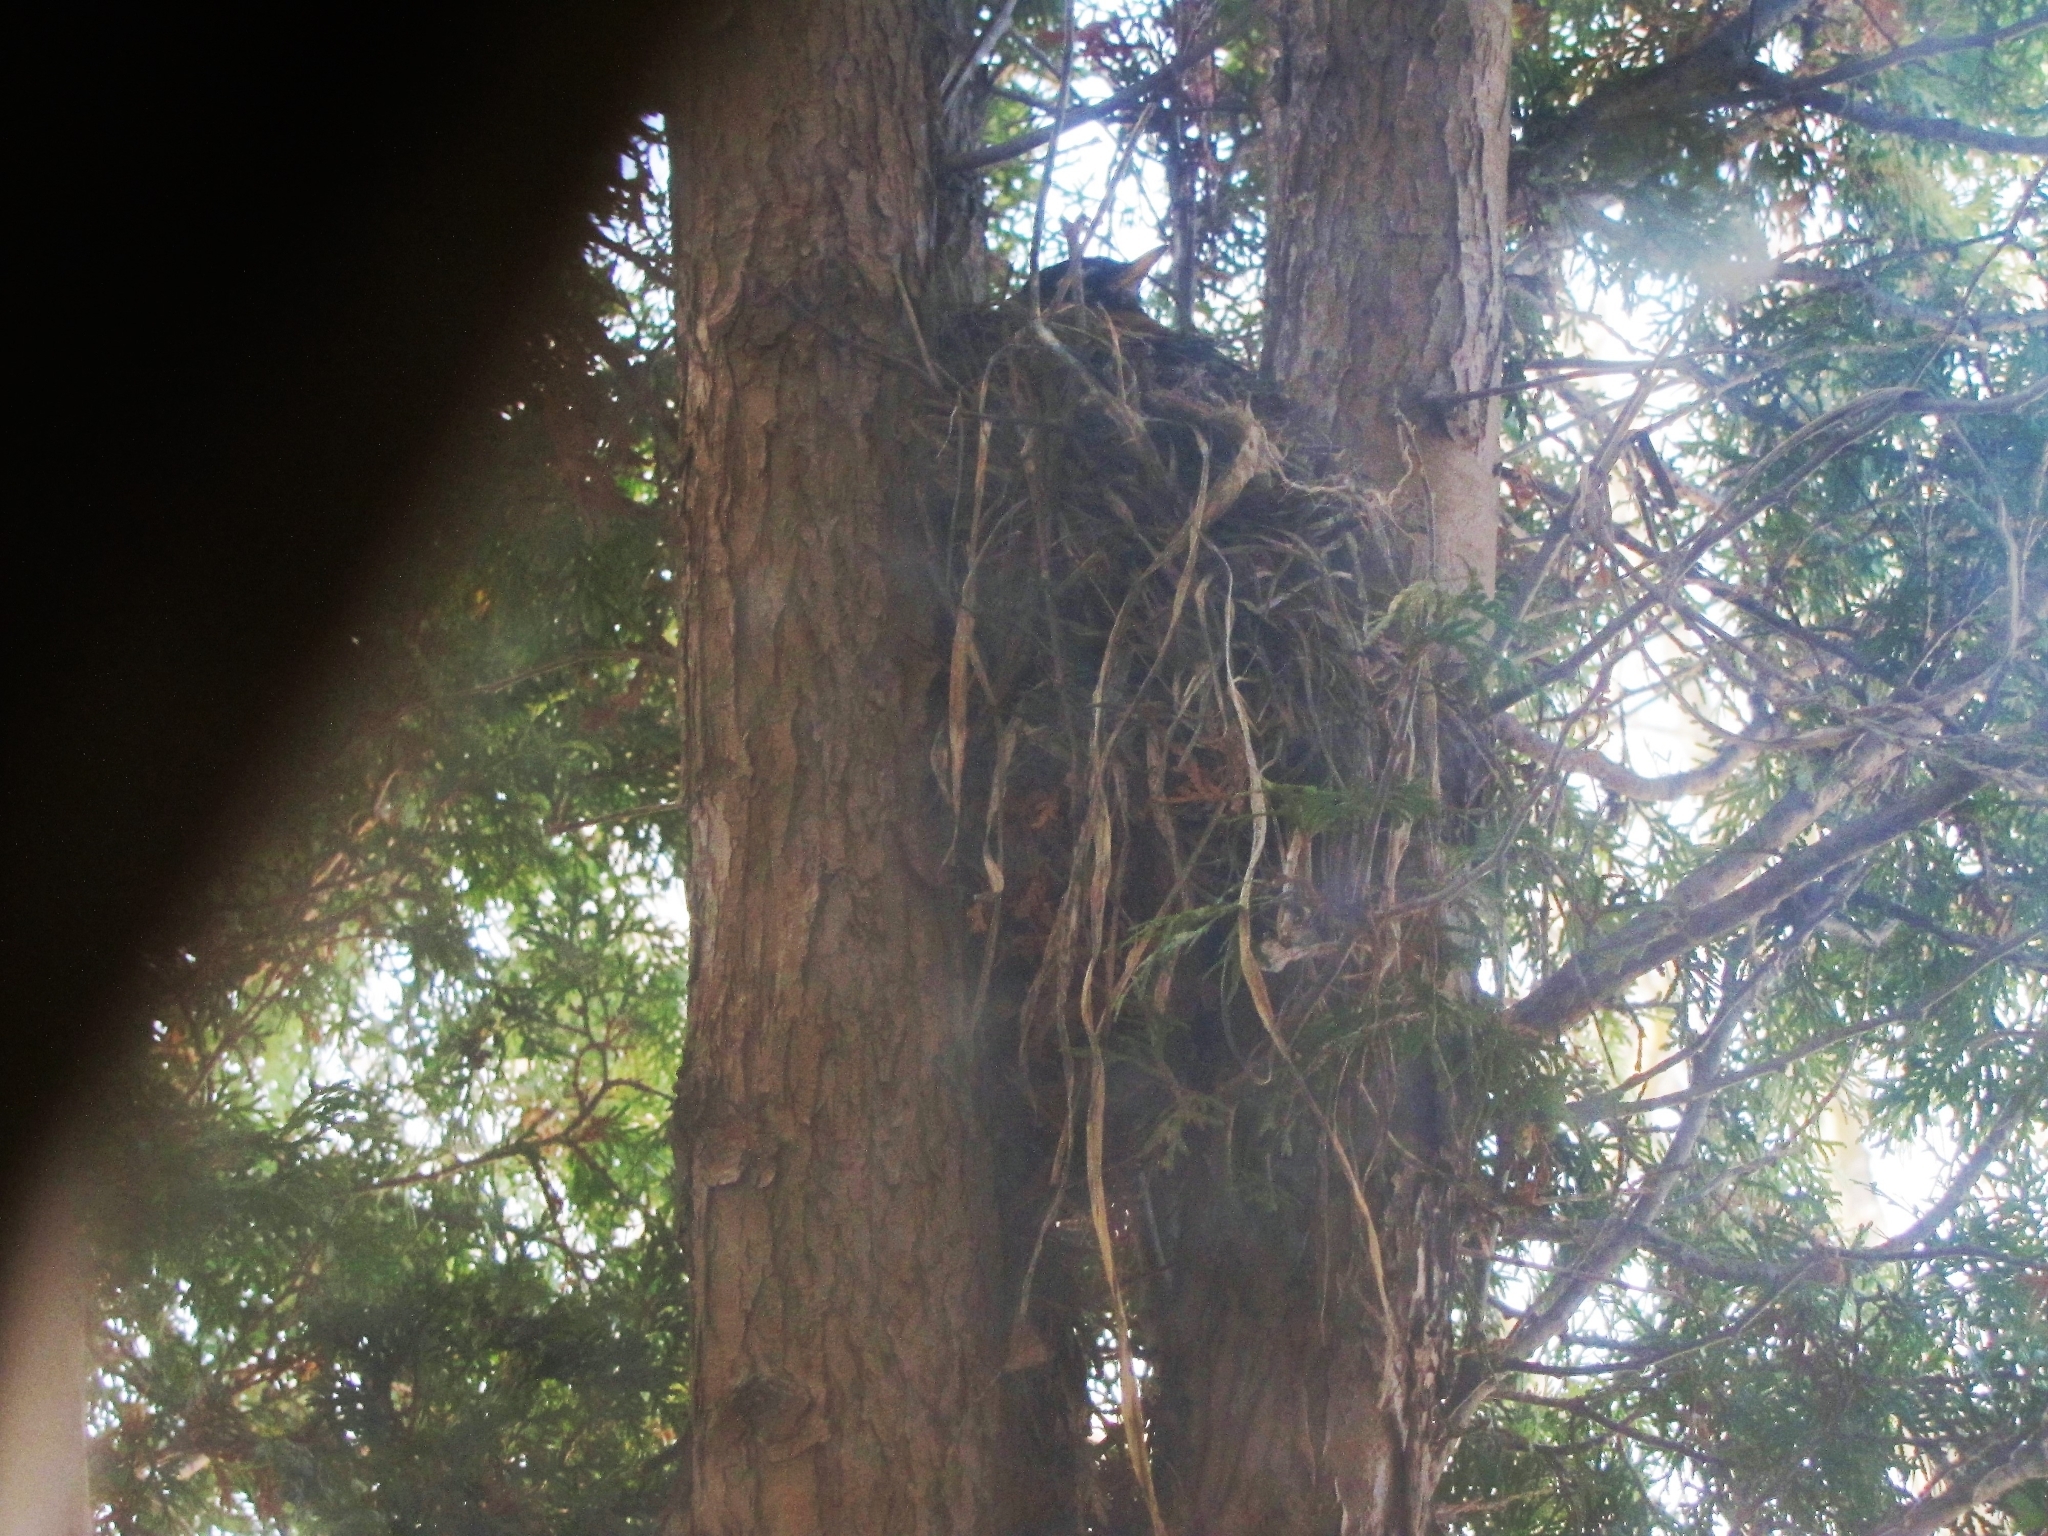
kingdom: Animalia
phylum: Chordata
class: Aves
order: Passeriformes
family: Turdidae
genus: Turdus
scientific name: Turdus migratorius
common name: American robin
